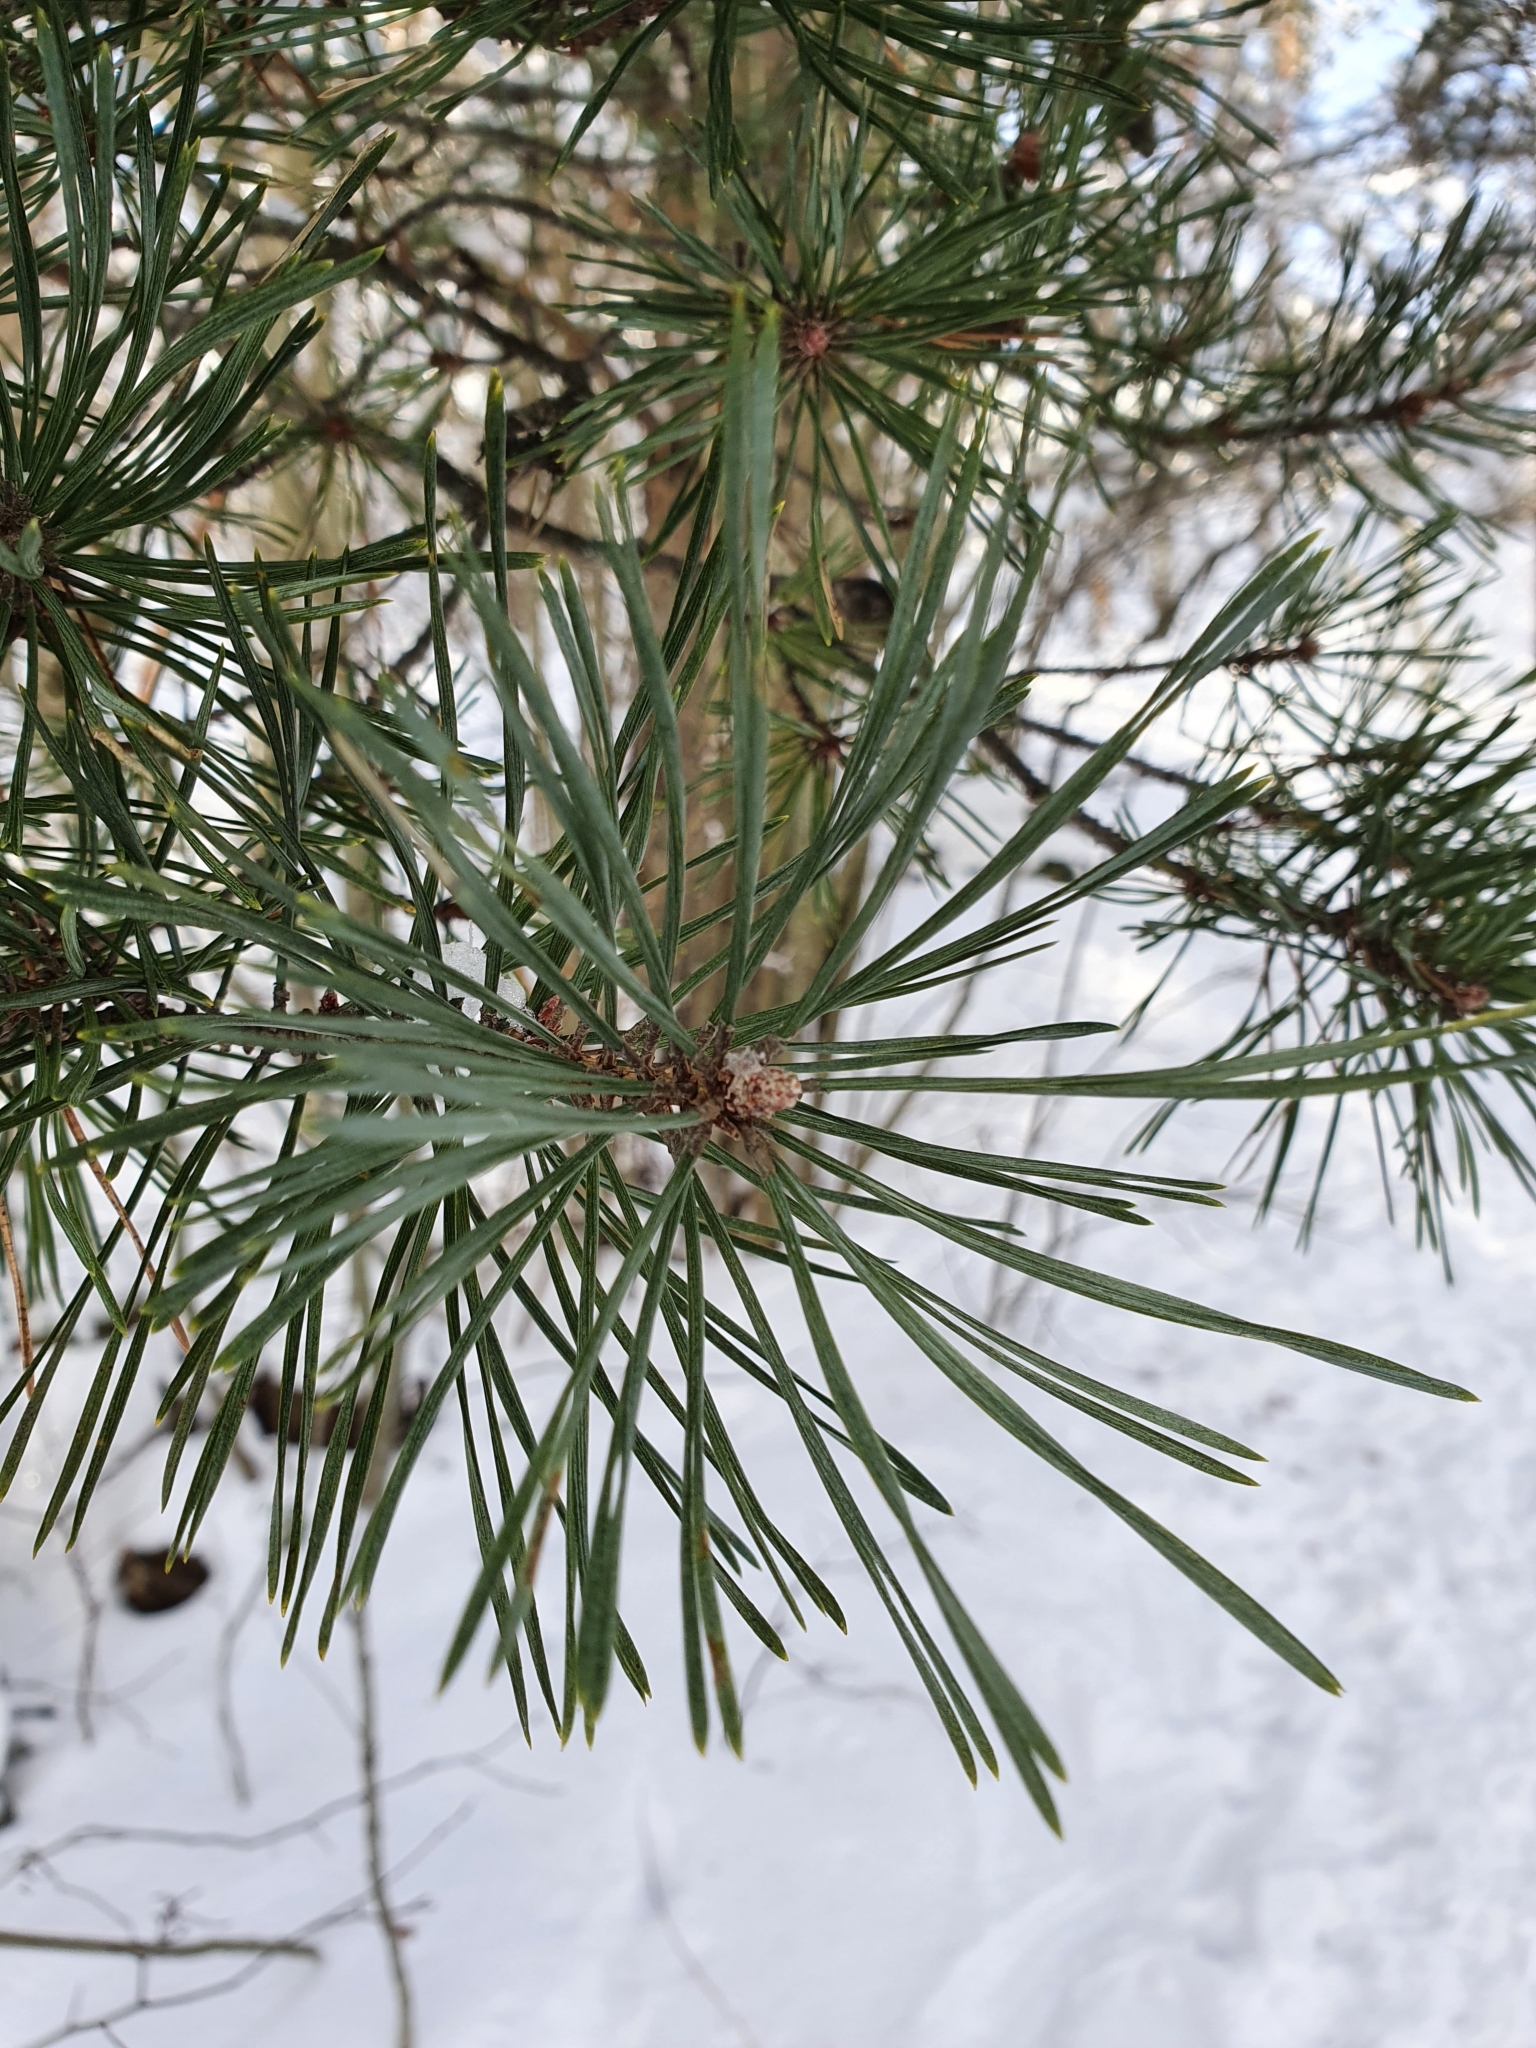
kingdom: Plantae
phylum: Tracheophyta
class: Pinopsida
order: Pinales
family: Pinaceae
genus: Pinus
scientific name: Pinus sylvestris
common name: Scots pine
